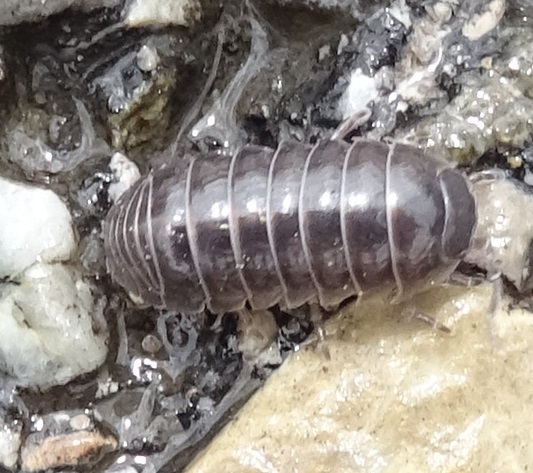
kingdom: Animalia
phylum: Arthropoda
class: Malacostraca
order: Isopoda
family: Armadillidiidae
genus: Armadillidium
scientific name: Armadillidium vulgare
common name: Common pill woodlouse
